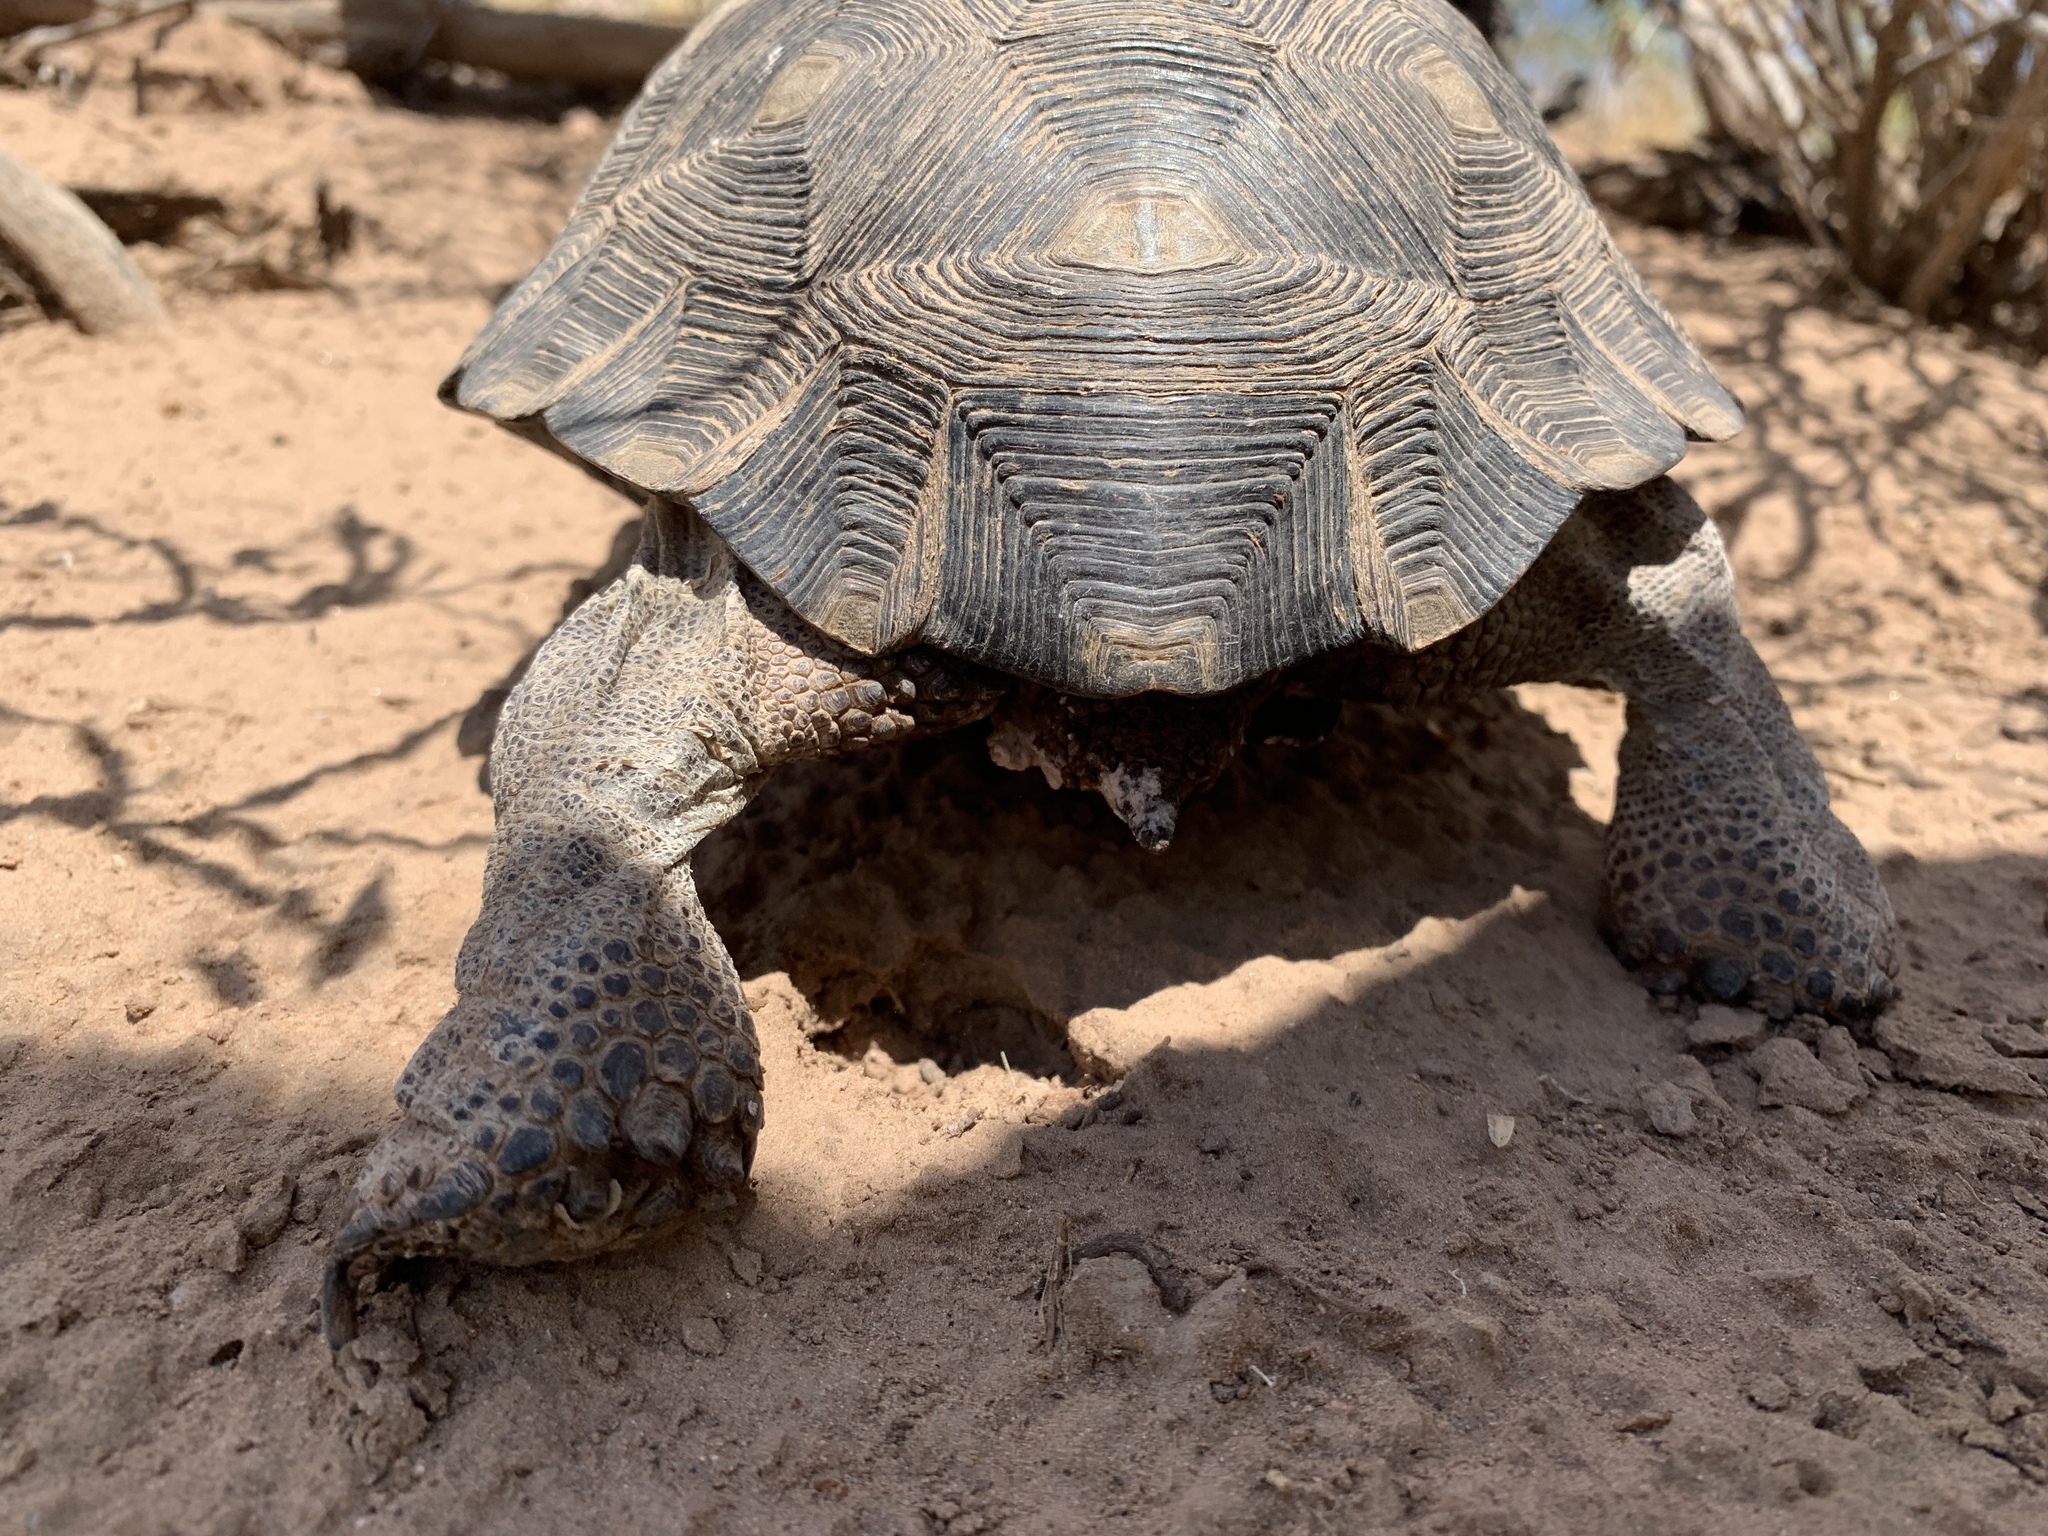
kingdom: Animalia
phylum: Chordata
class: Testudines
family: Testudinidae
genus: Gopherus
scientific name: Gopherus morafkai
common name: Sonoran desert tortoise
